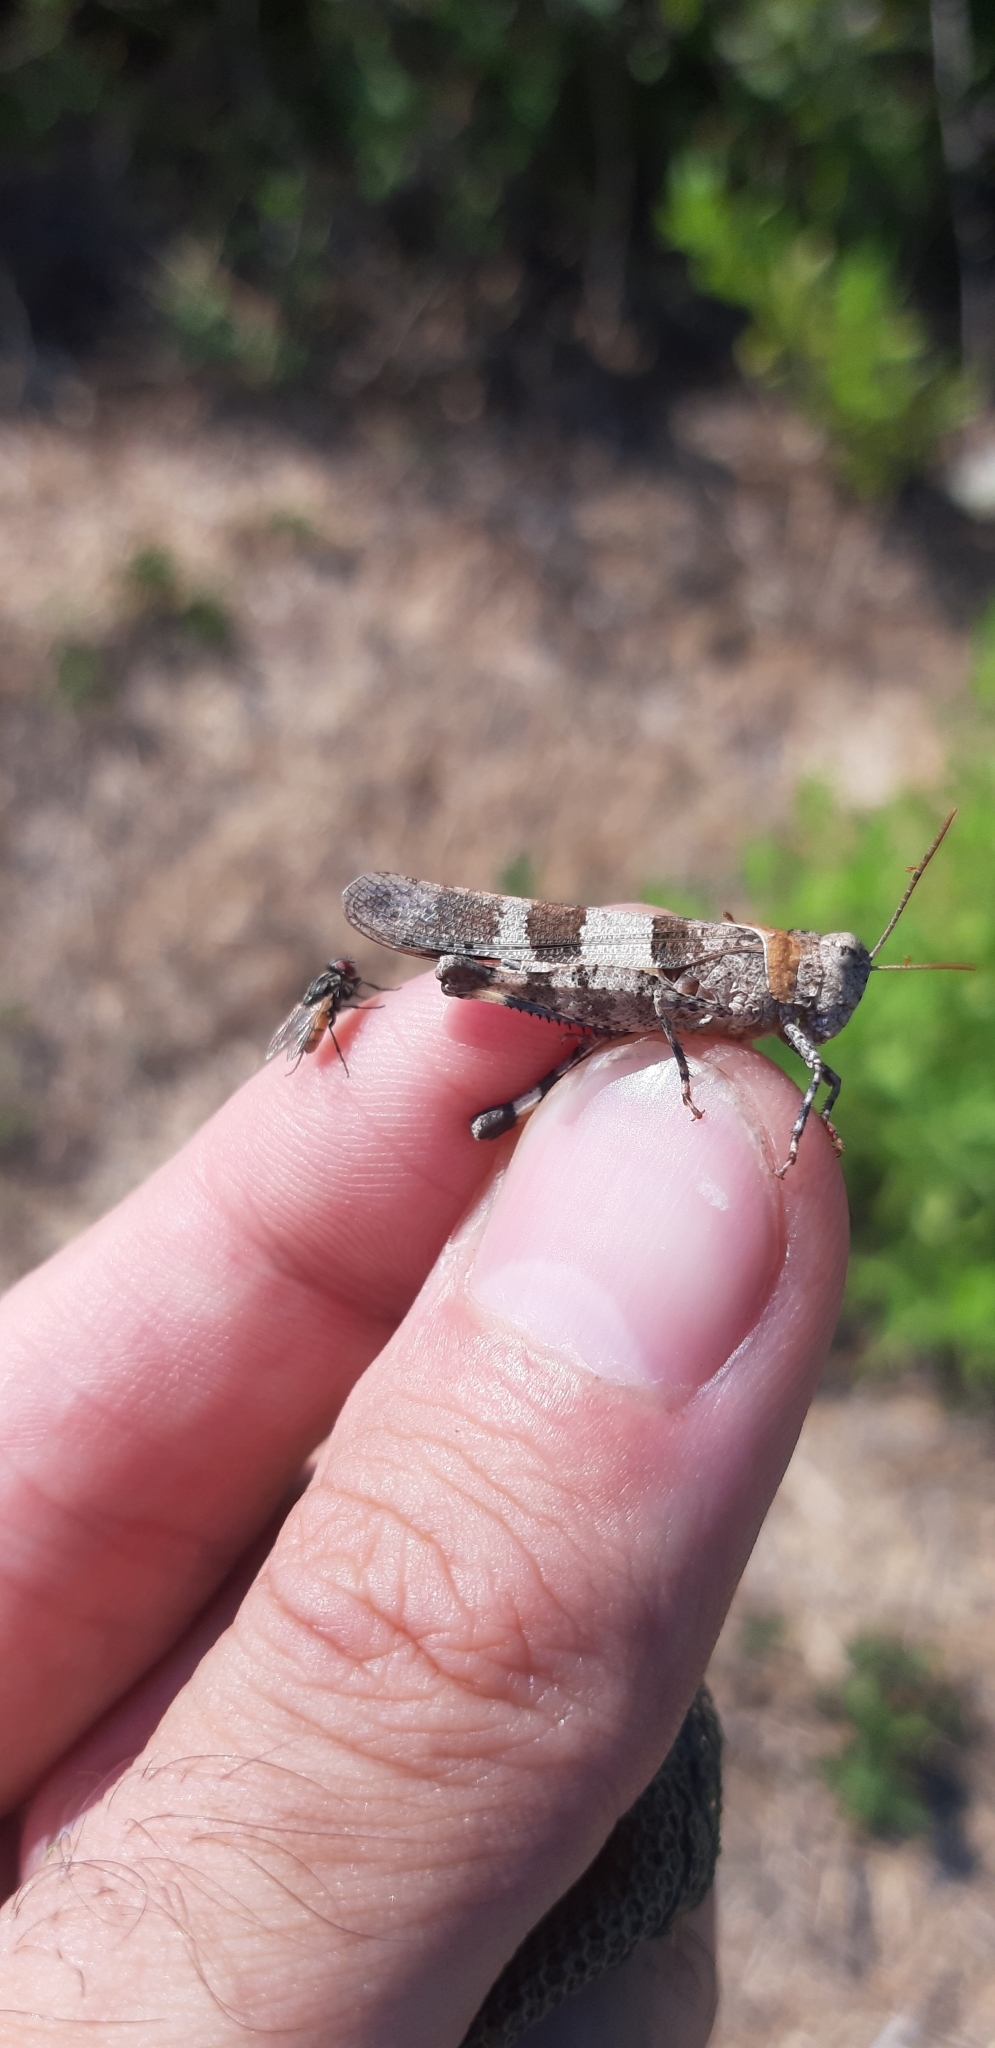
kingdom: Animalia
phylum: Arthropoda
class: Insecta
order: Orthoptera
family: Acrididae
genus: Oedipoda
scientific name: Oedipoda caerulescens
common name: Blue-winged grasshopper
